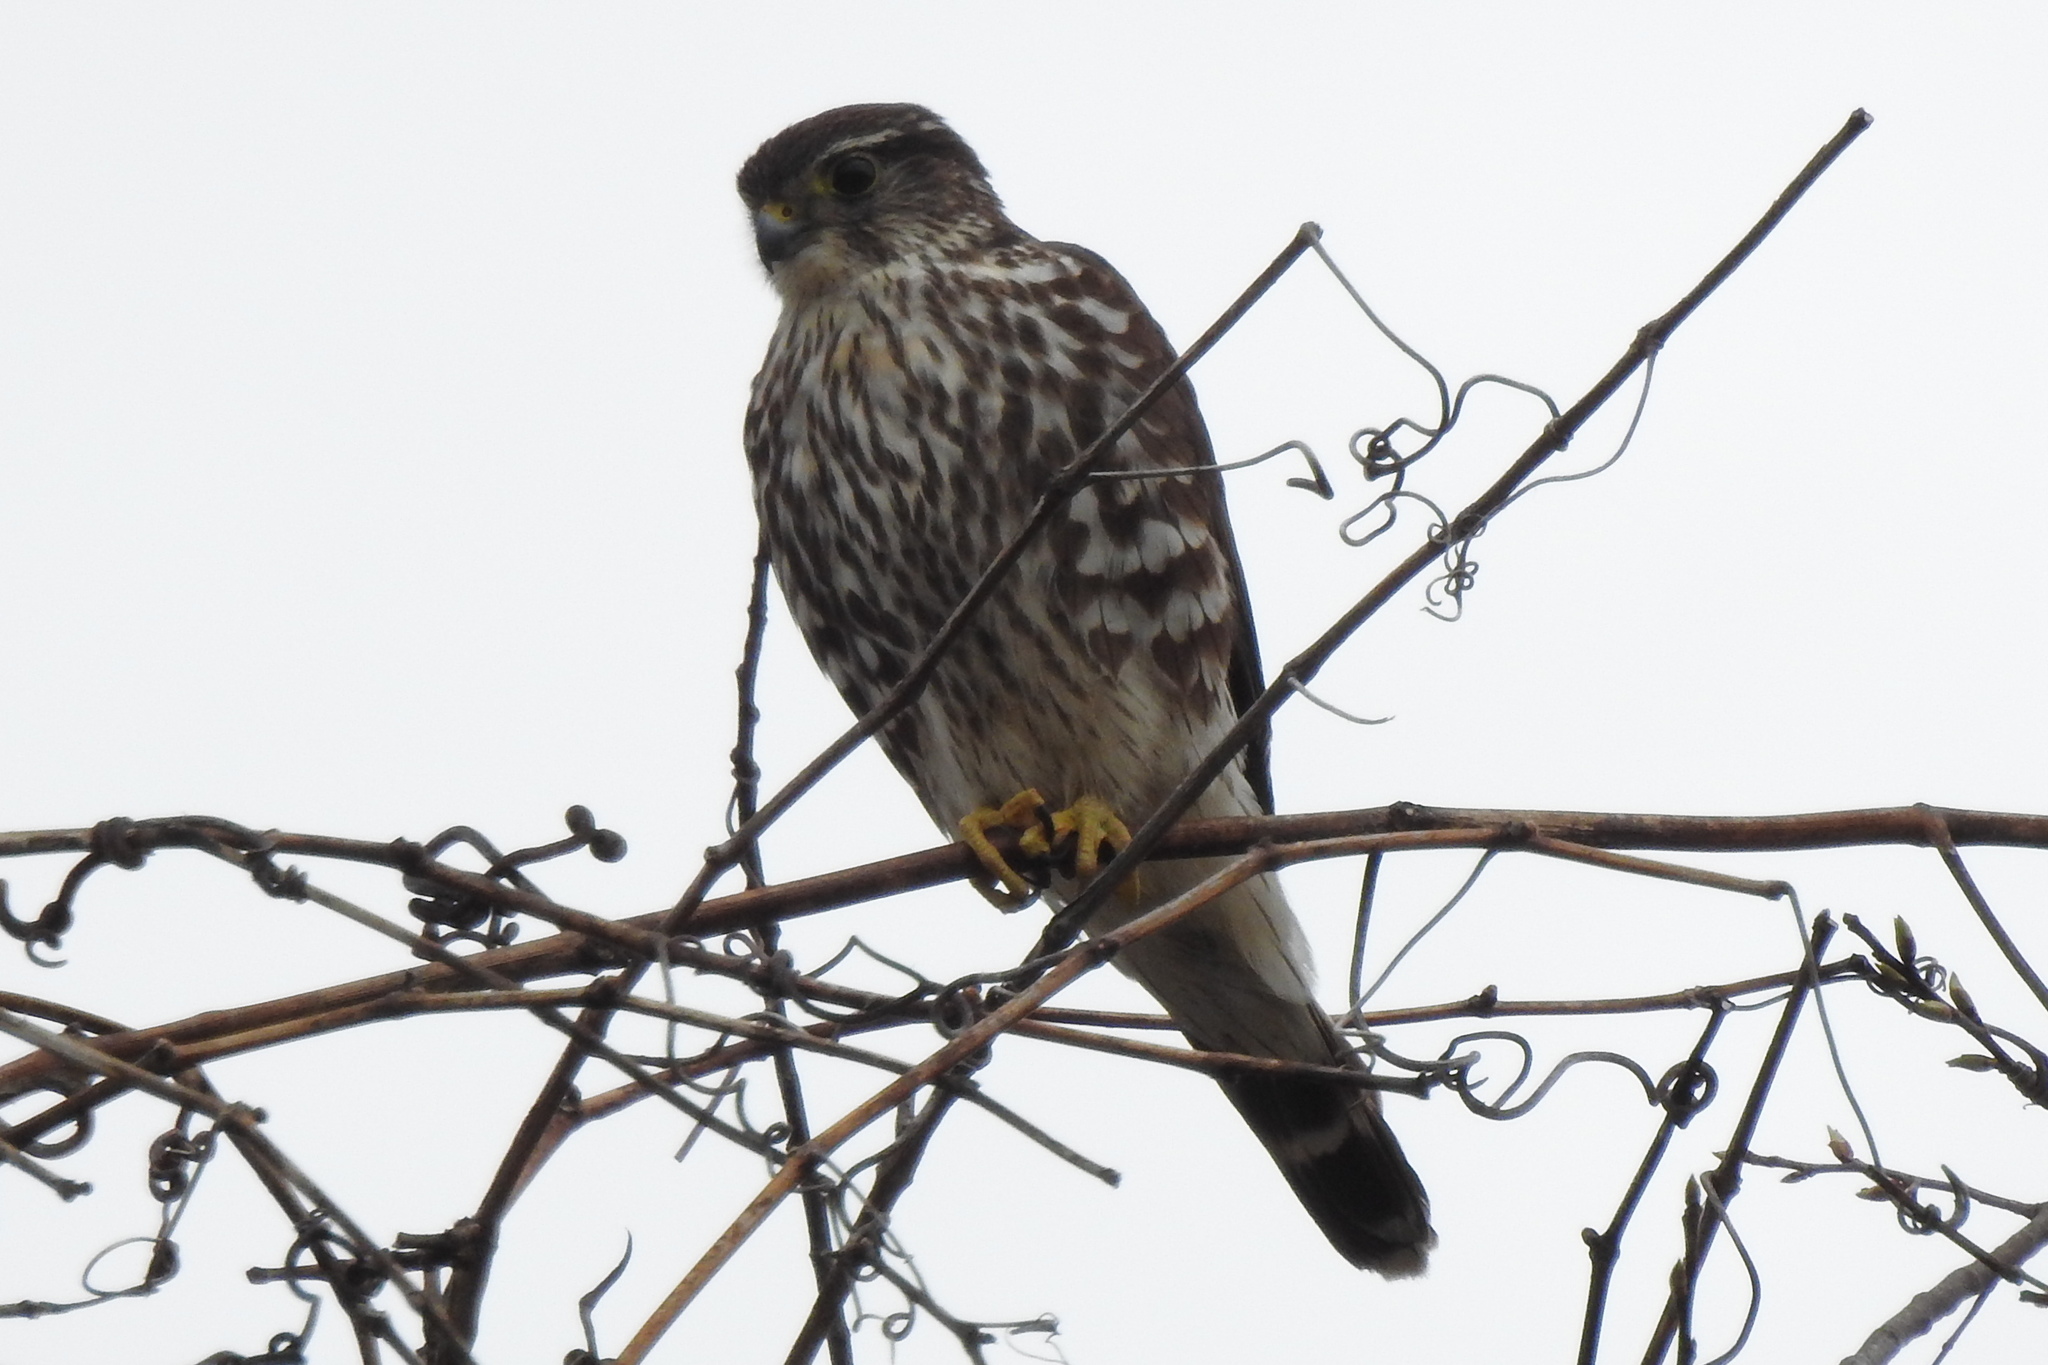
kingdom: Animalia
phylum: Chordata
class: Aves
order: Falconiformes
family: Falconidae
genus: Falco
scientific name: Falco columbarius
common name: Merlin
